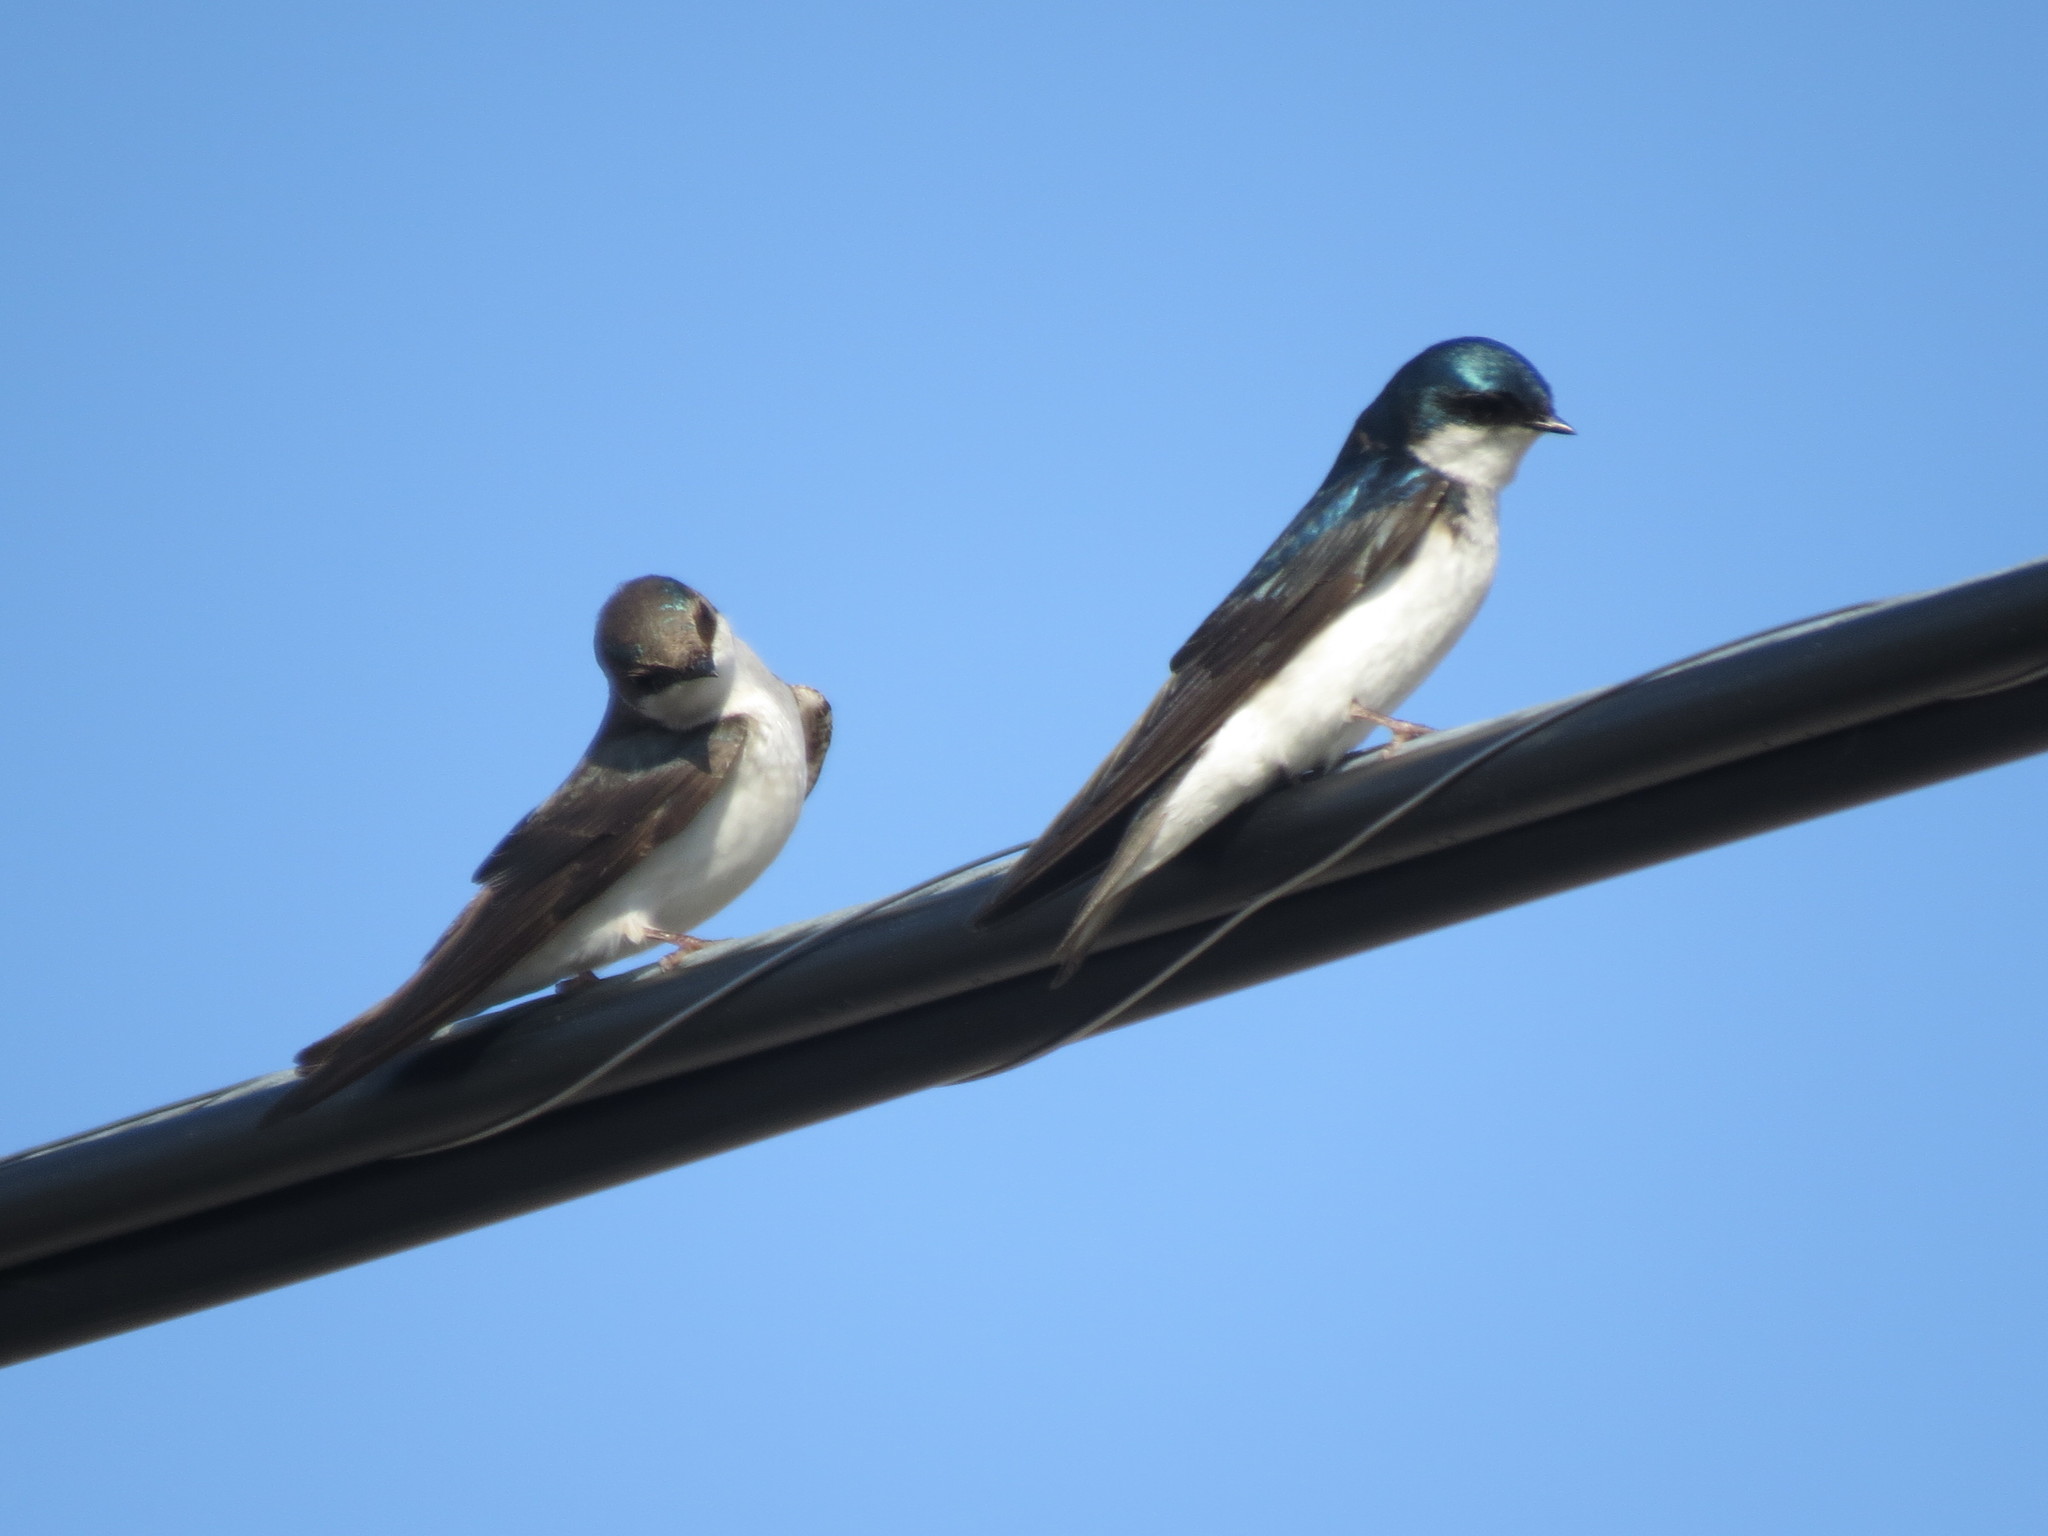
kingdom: Animalia
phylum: Chordata
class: Aves
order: Passeriformes
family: Hirundinidae
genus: Tachycineta
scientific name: Tachycineta bicolor
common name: Tree swallow
